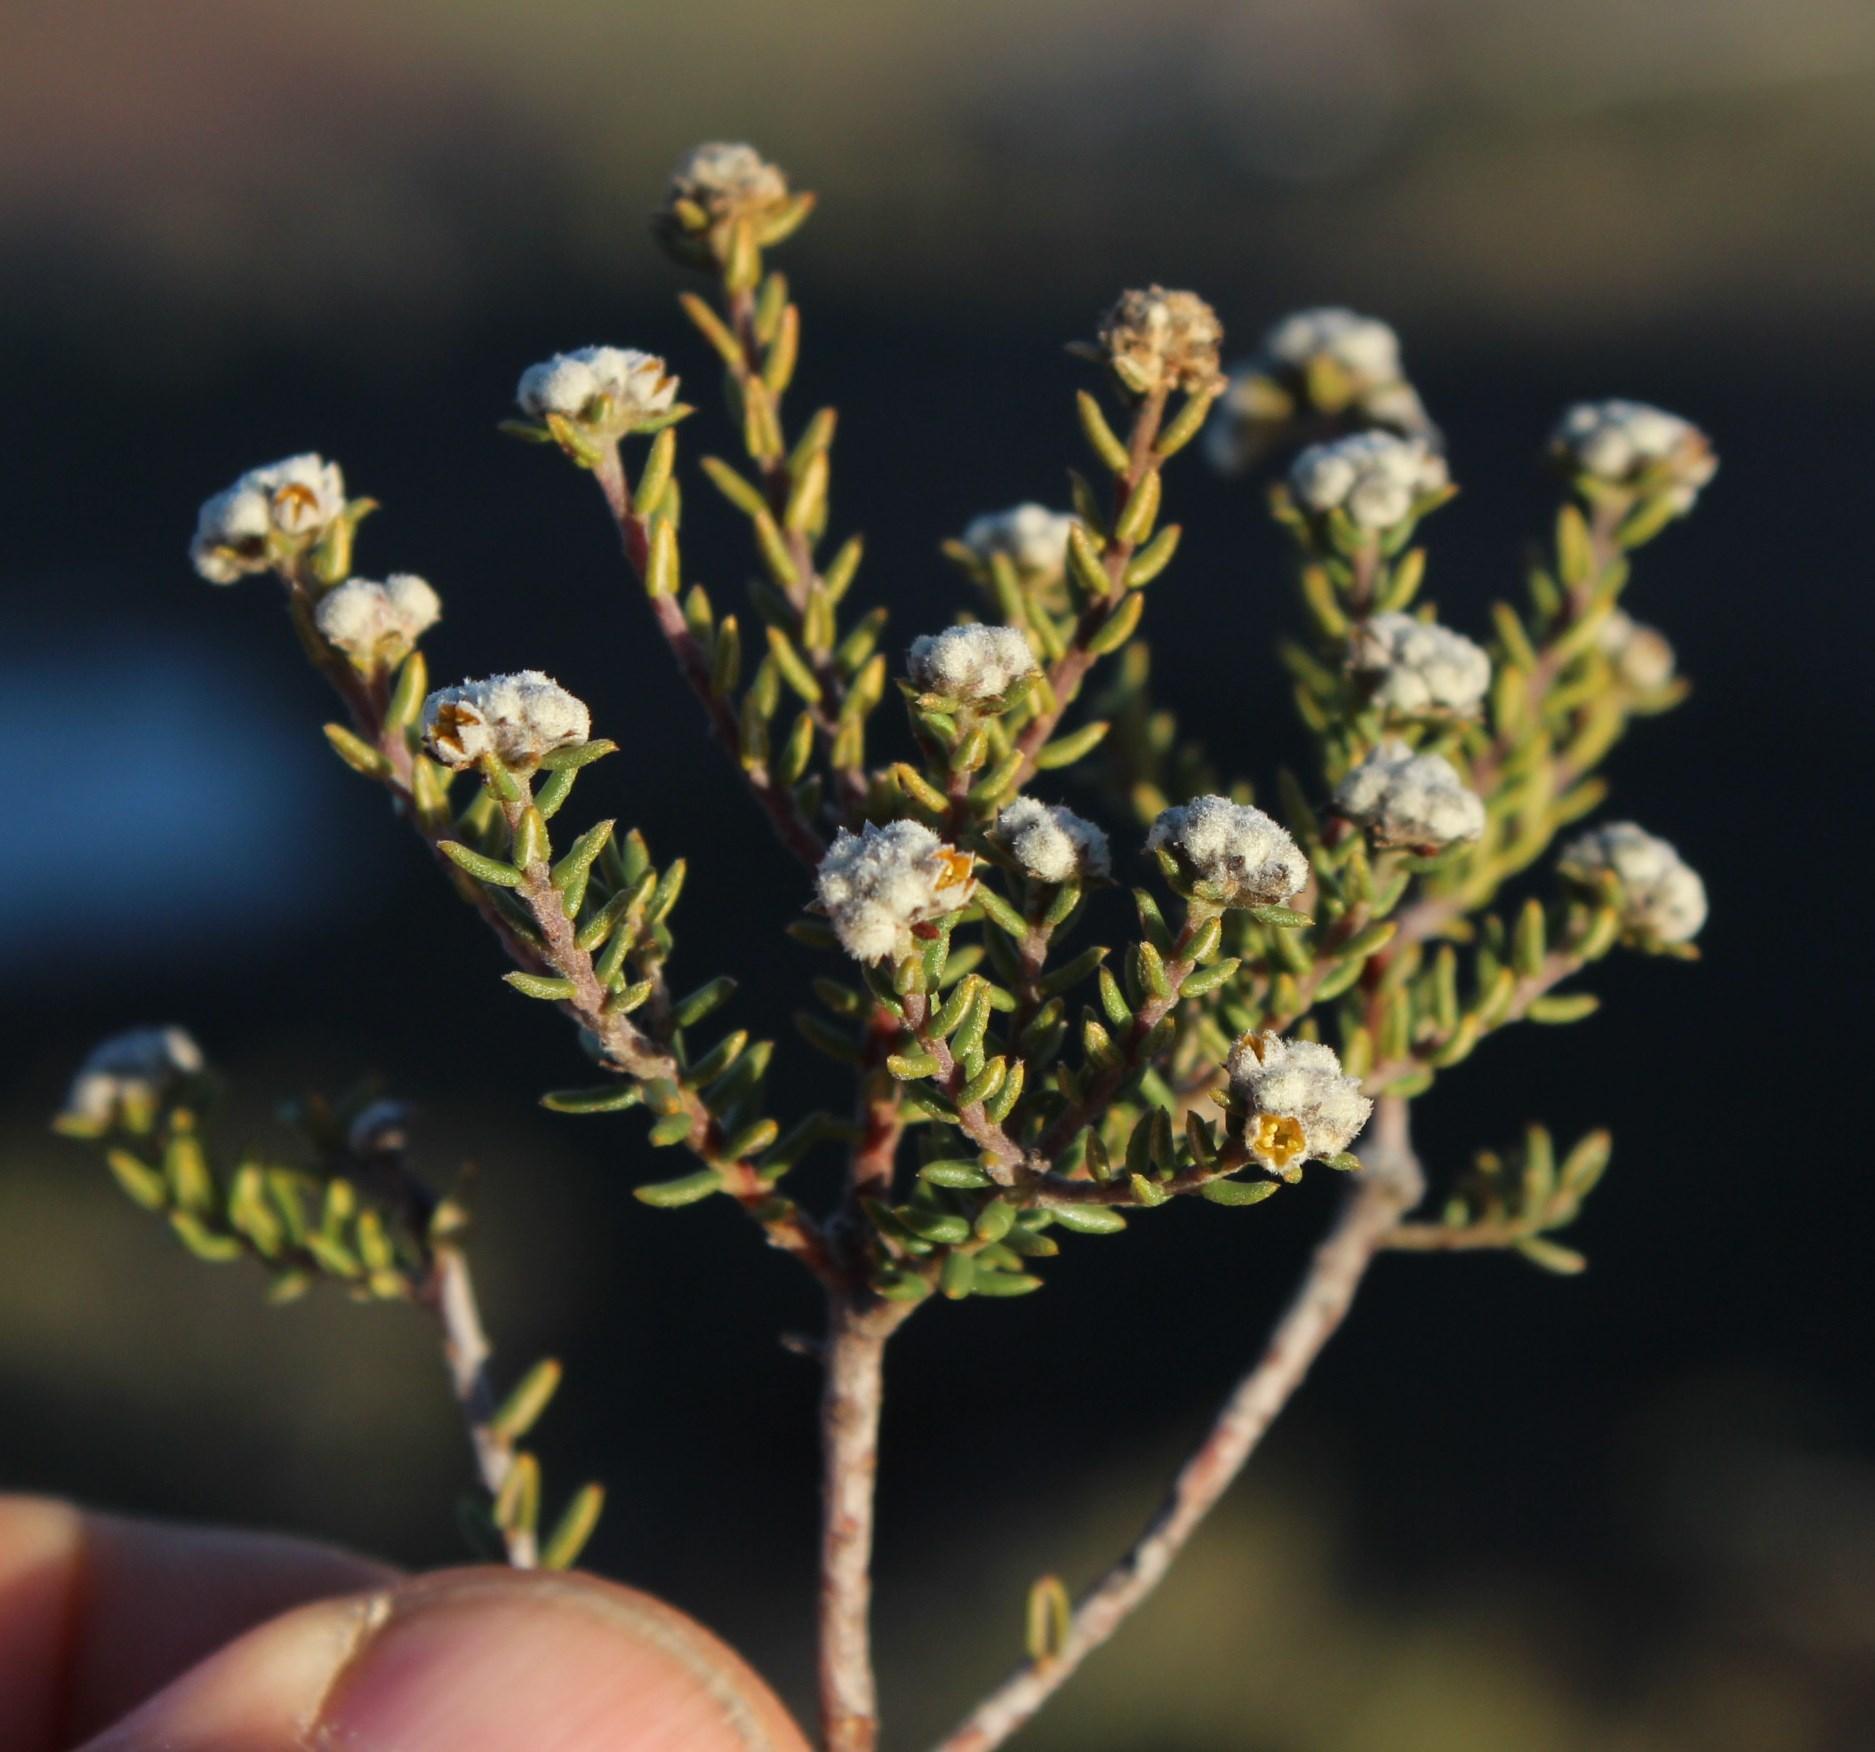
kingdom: Plantae
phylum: Tracheophyta
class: Magnoliopsida
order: Rosales
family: Rhamnaceae
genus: Phylica
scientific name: Phylica rogersii
